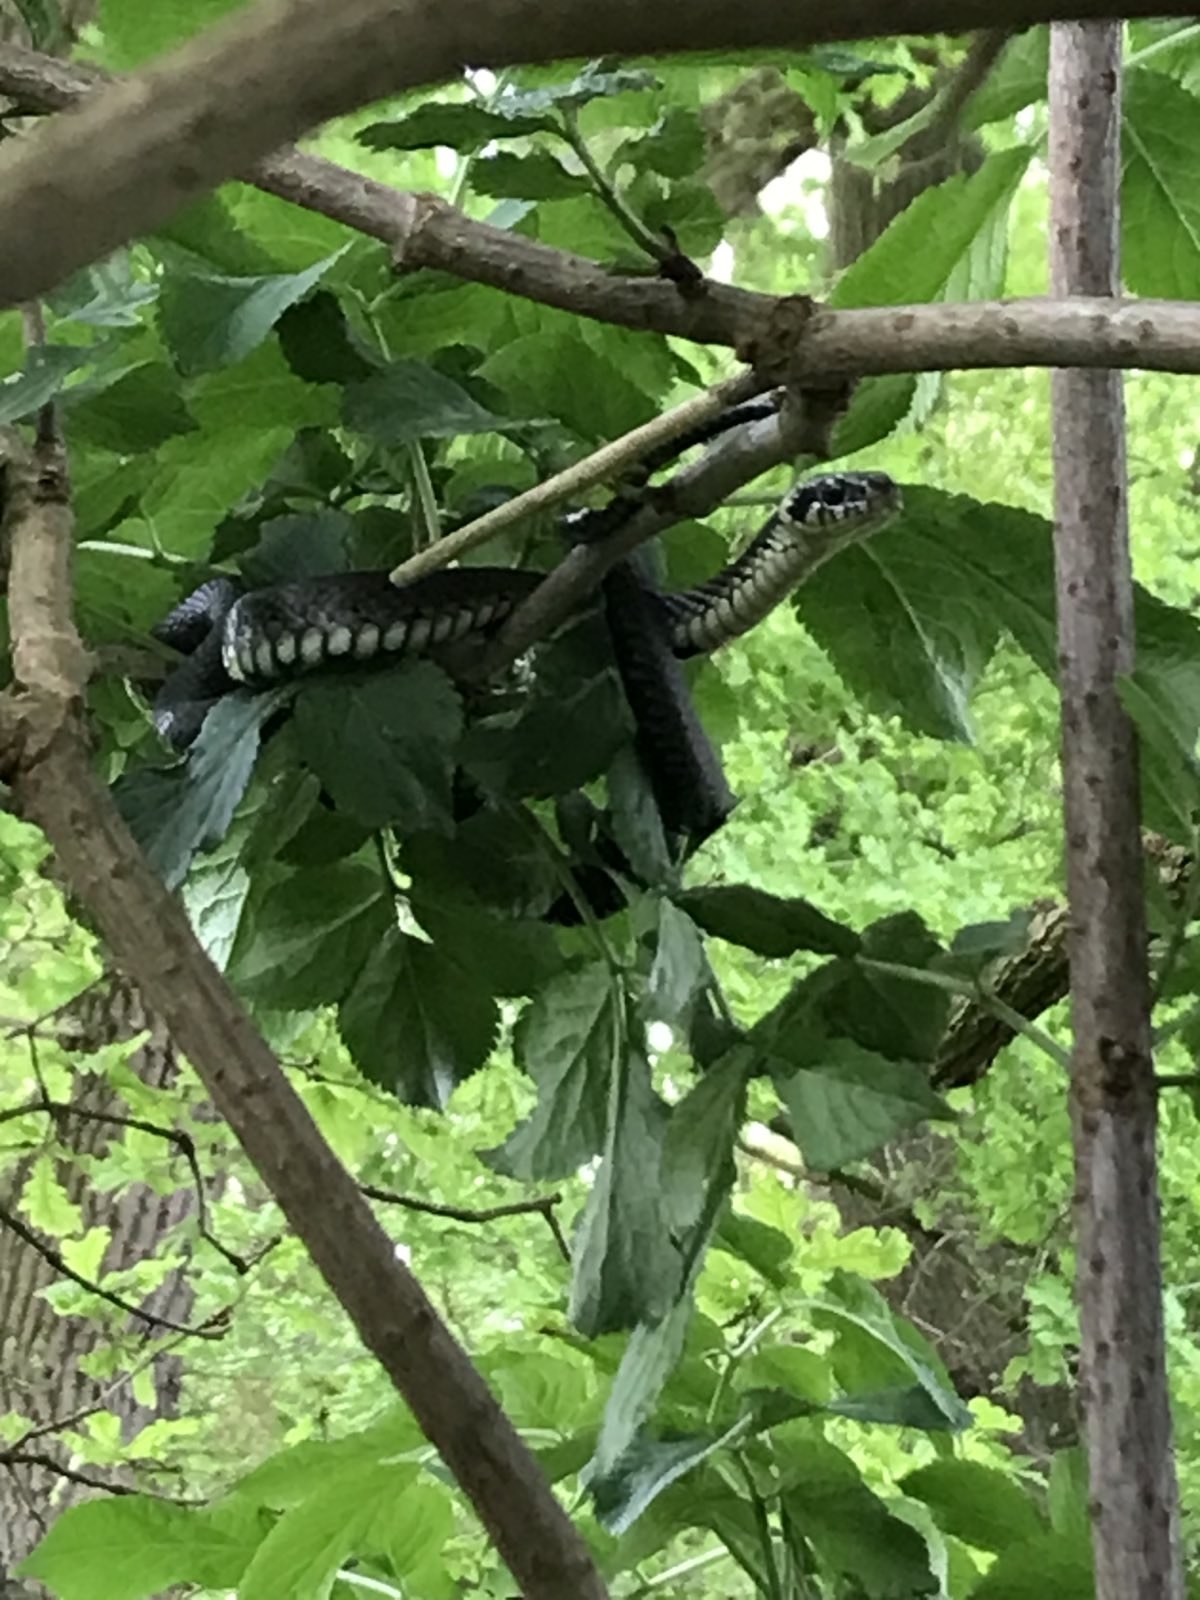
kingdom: Animalia
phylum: Chordata
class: Squamata
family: Colubridae
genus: Natrix
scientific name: Natrix natrix
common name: Grass snake
